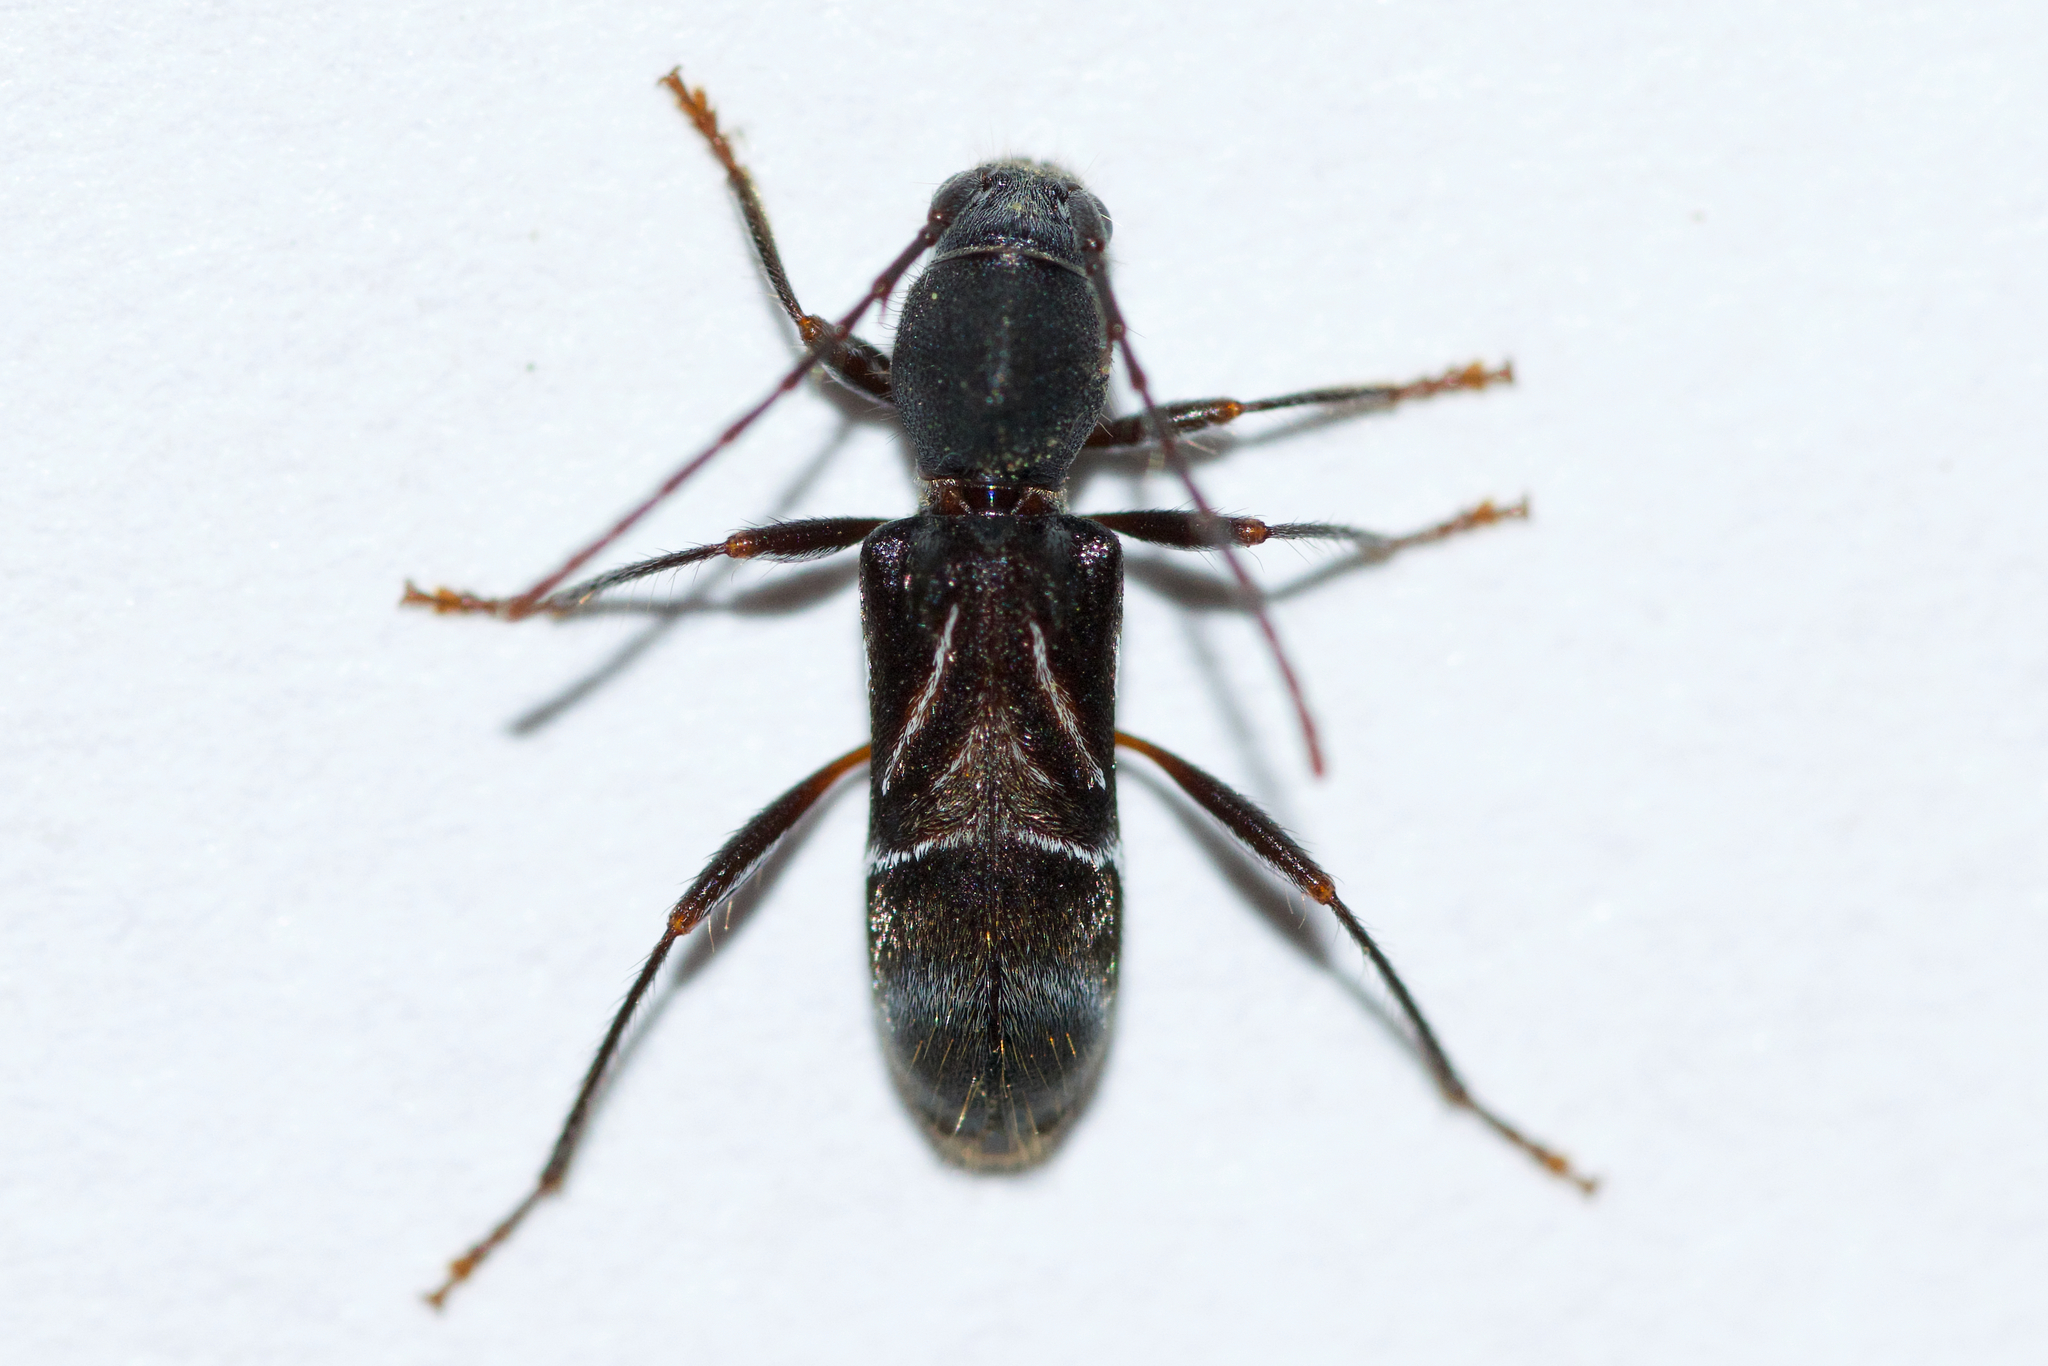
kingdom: Animalia
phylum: Arthropoda
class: Insecta
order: Coleoptera
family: Cerambycidae
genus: Cyrtophorus
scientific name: Cyrtophorus verrucosus
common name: Ant-like longhorn beetle
